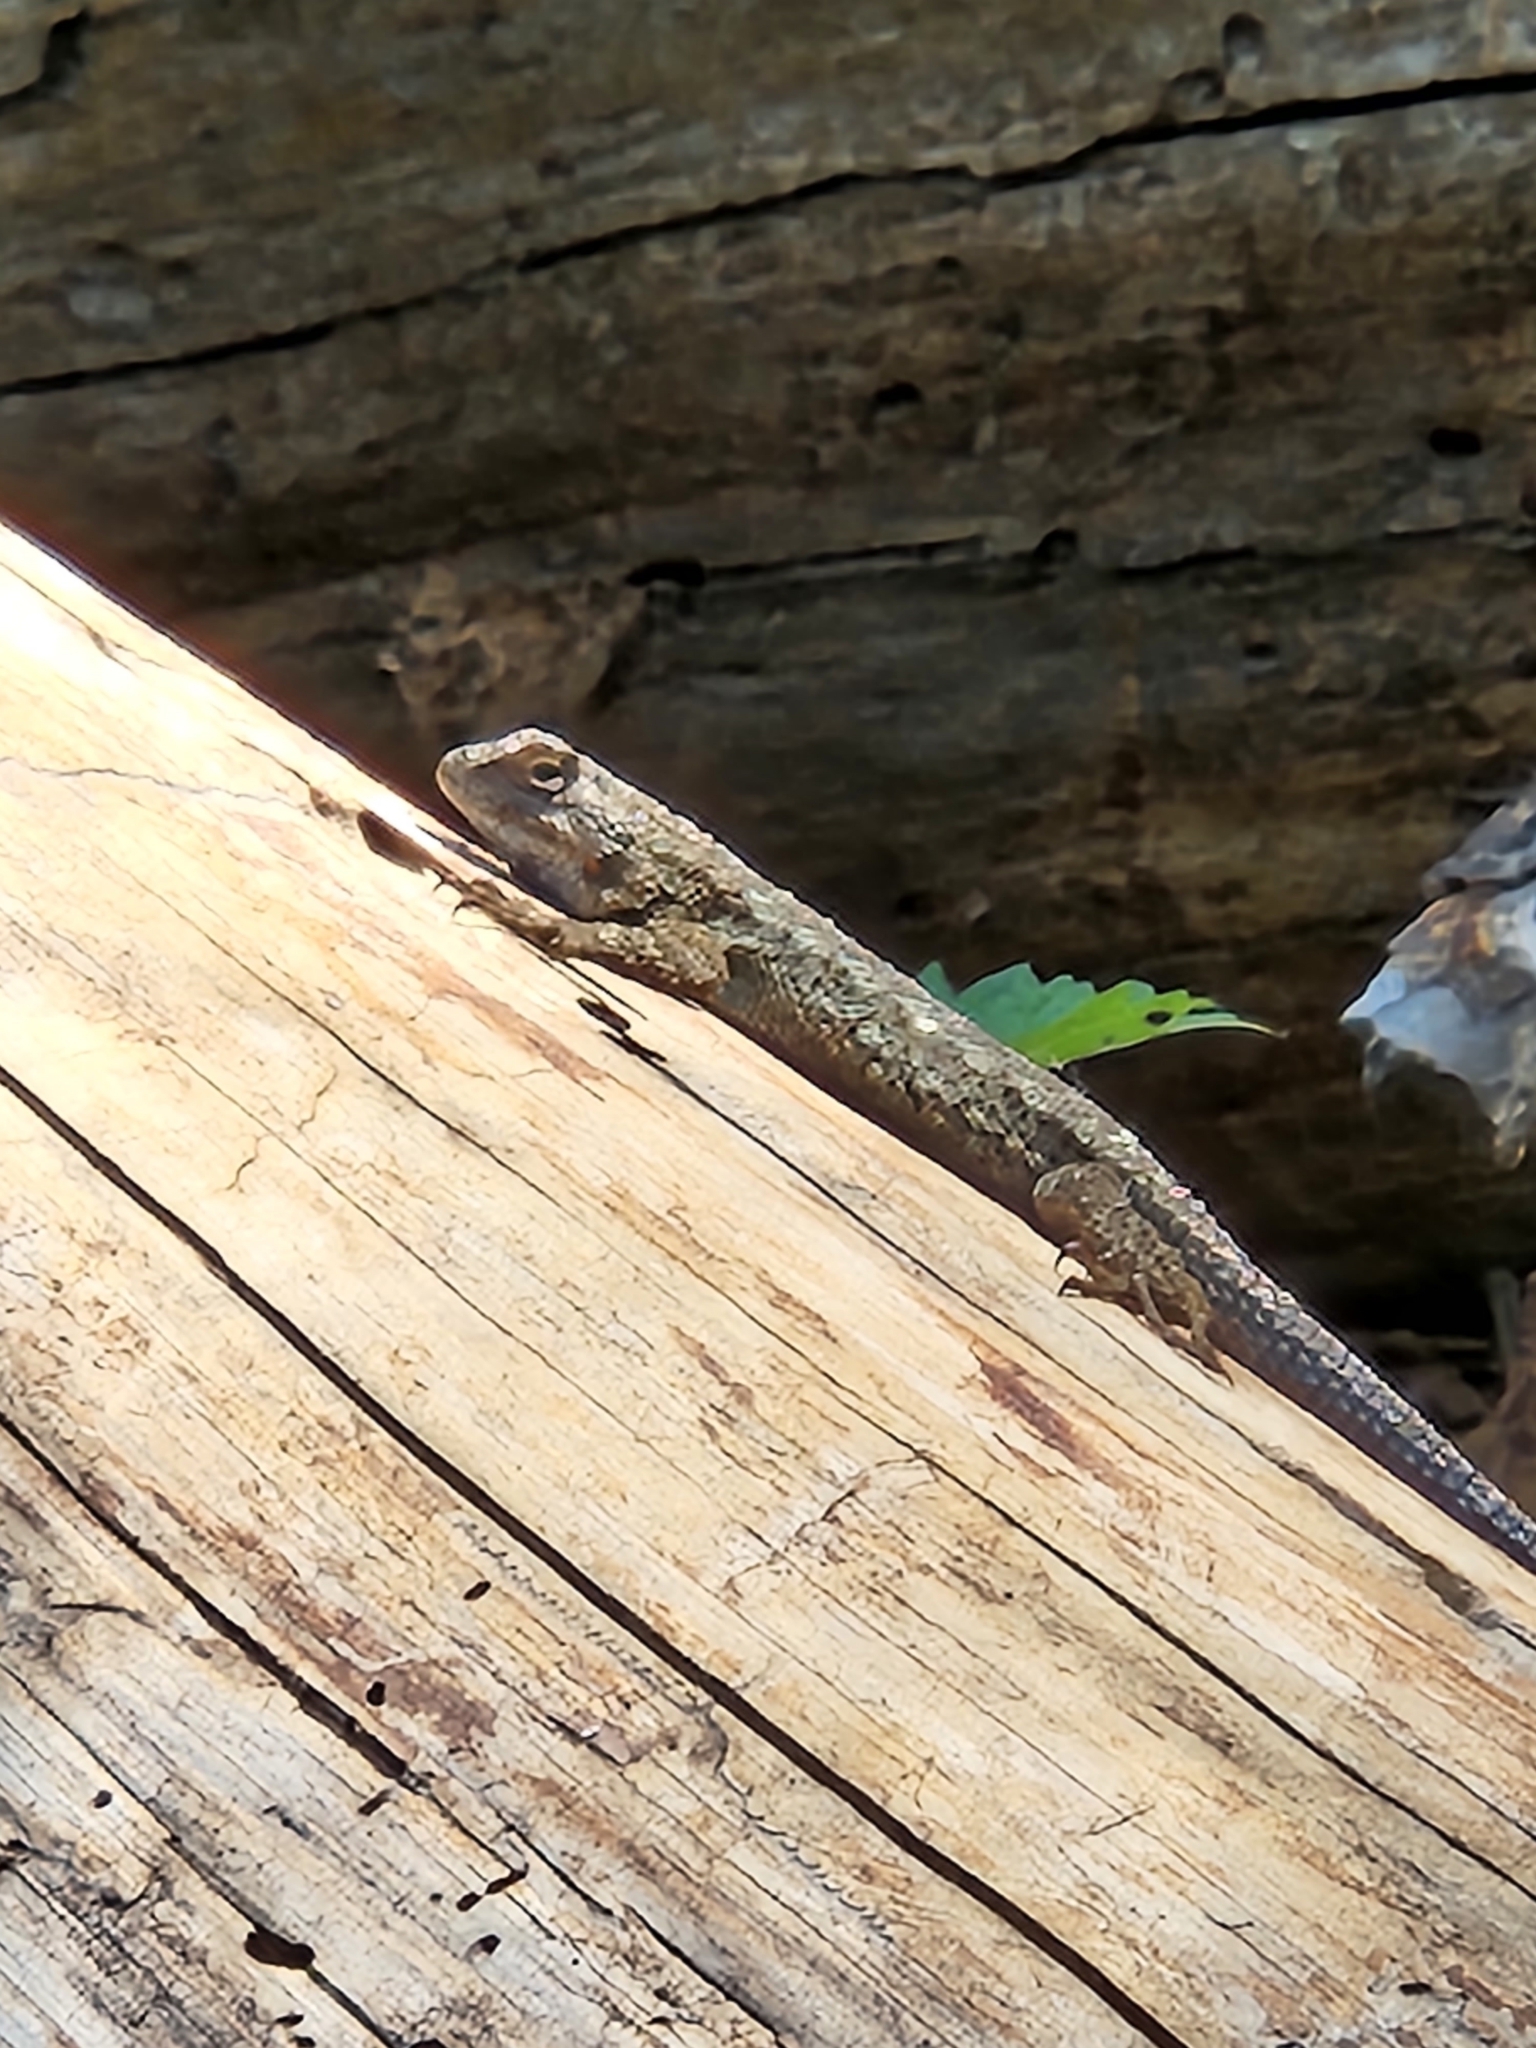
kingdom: Animalia
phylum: Chordata
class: Squamata
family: Phrynosomatidae
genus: Sceloporus
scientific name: Sceloporus occidentalis
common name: Western fence lizard
